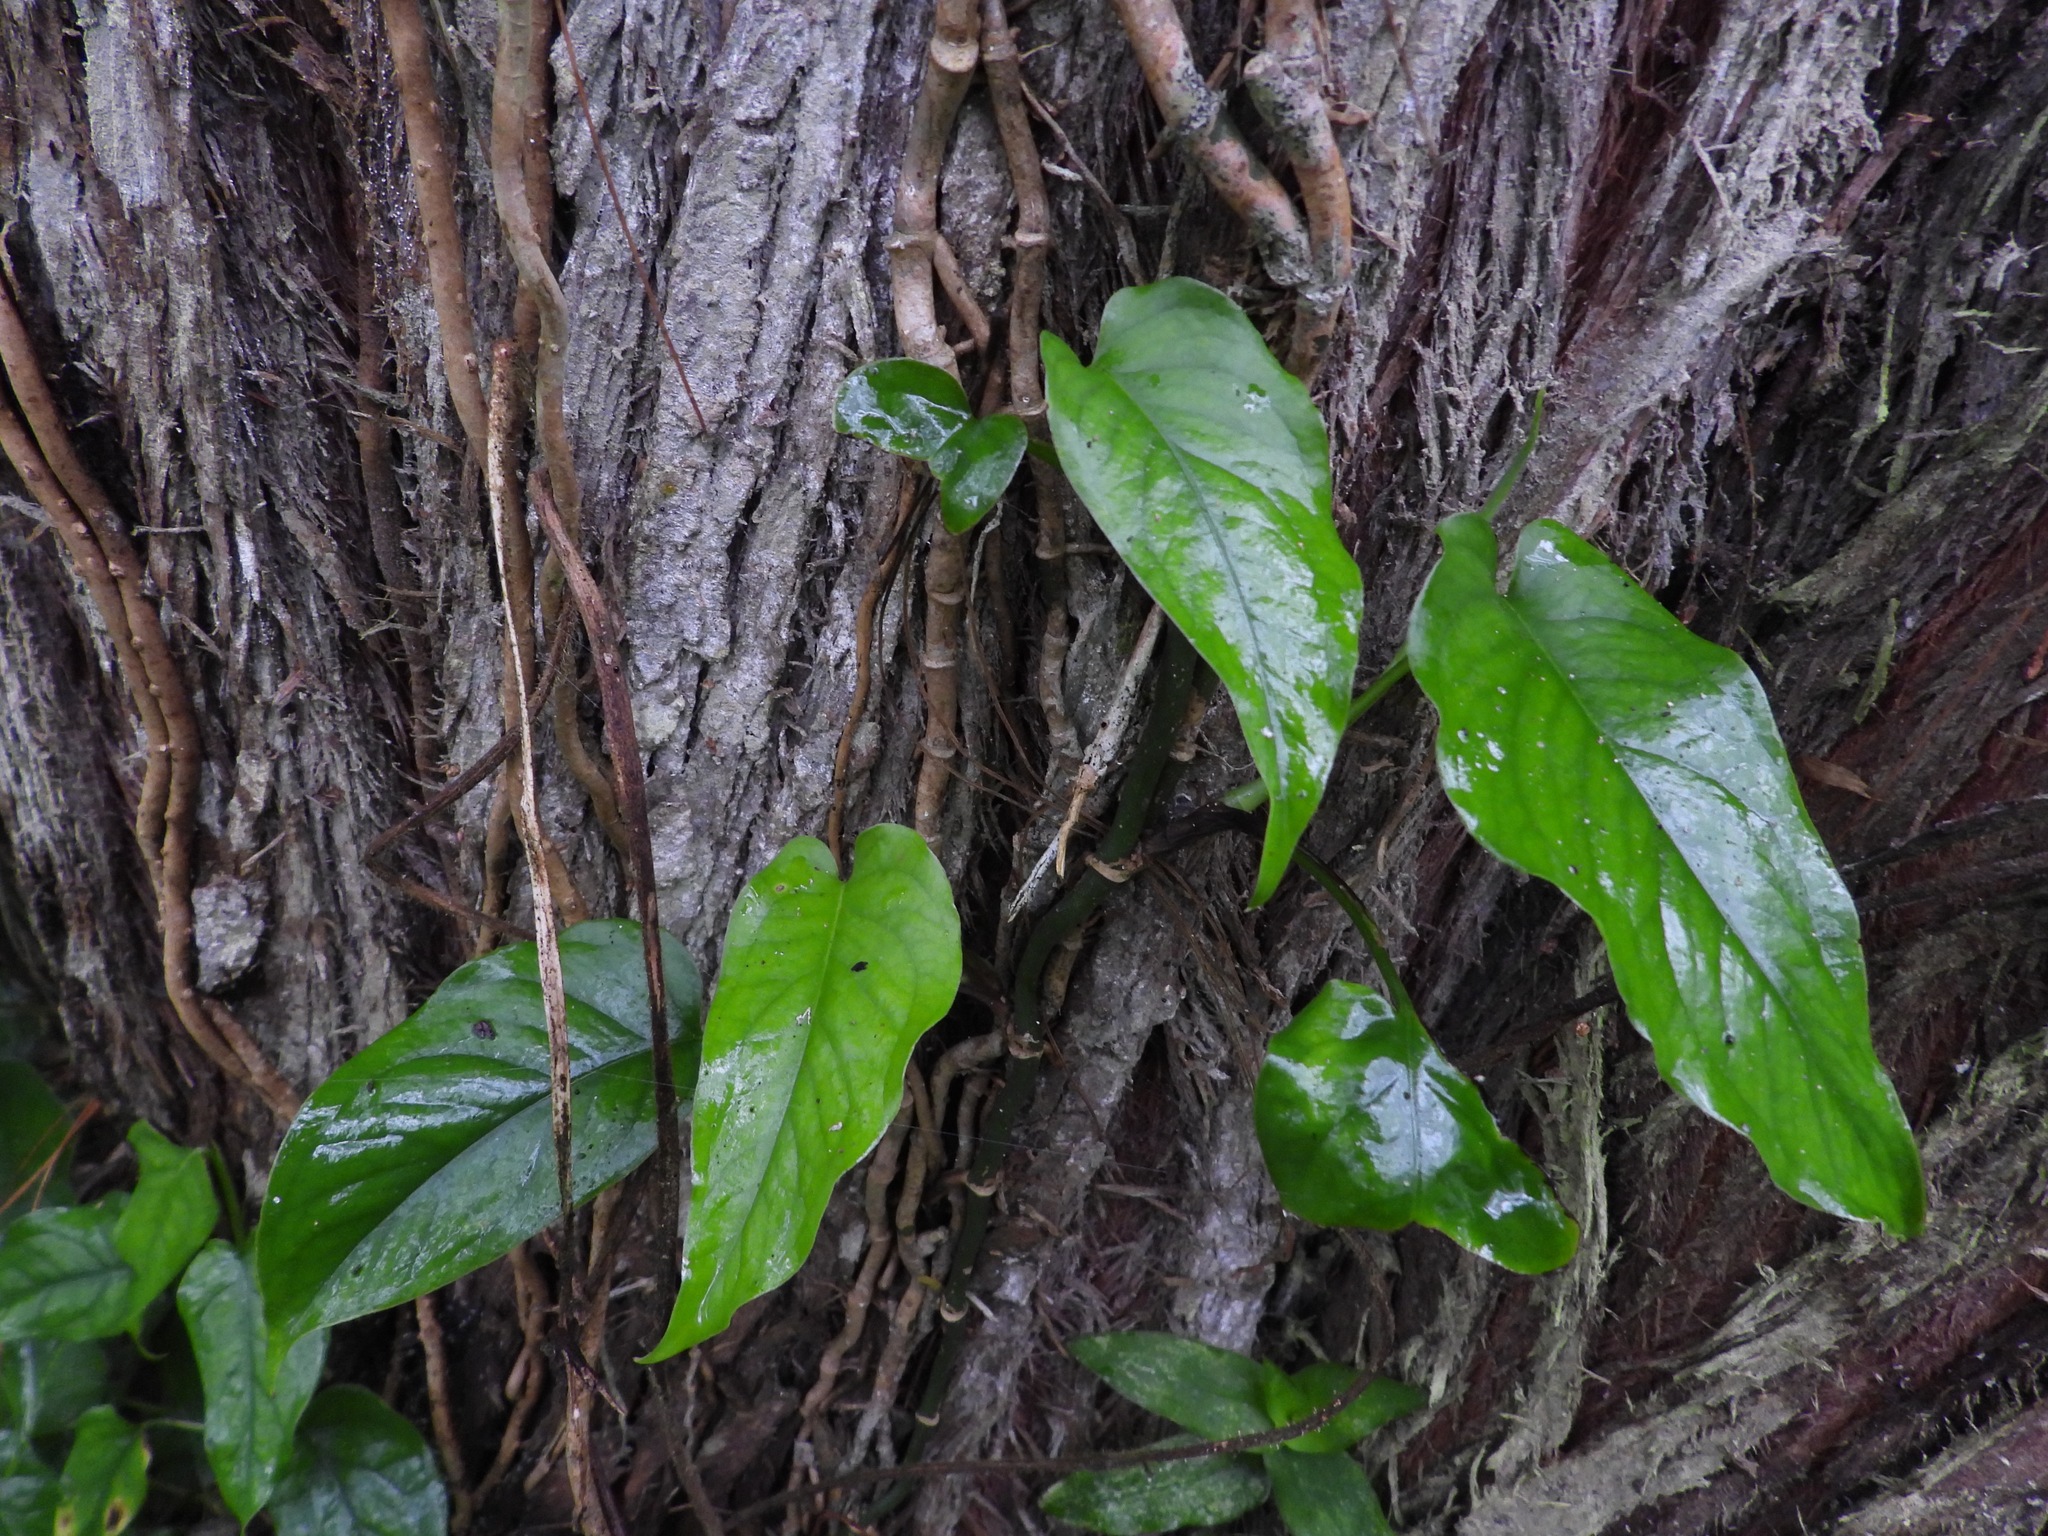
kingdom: Plantae
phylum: Tracheophyta
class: Liliopsida
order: Alismatales
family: Araceae
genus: Monstera
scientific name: Monstera siltepecana
